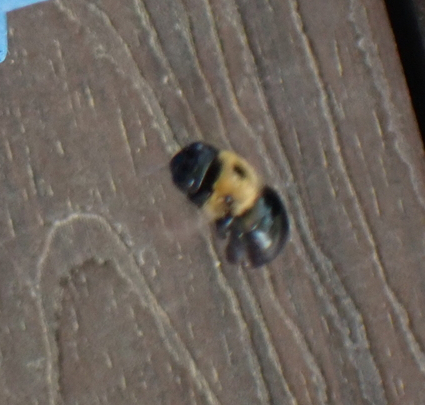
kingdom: Animalia
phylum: Arthropoda
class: Insecta
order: Hymenoptera
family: Apidae
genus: Xylocopa
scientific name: Xylocopa virginica
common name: Carpenter bee
